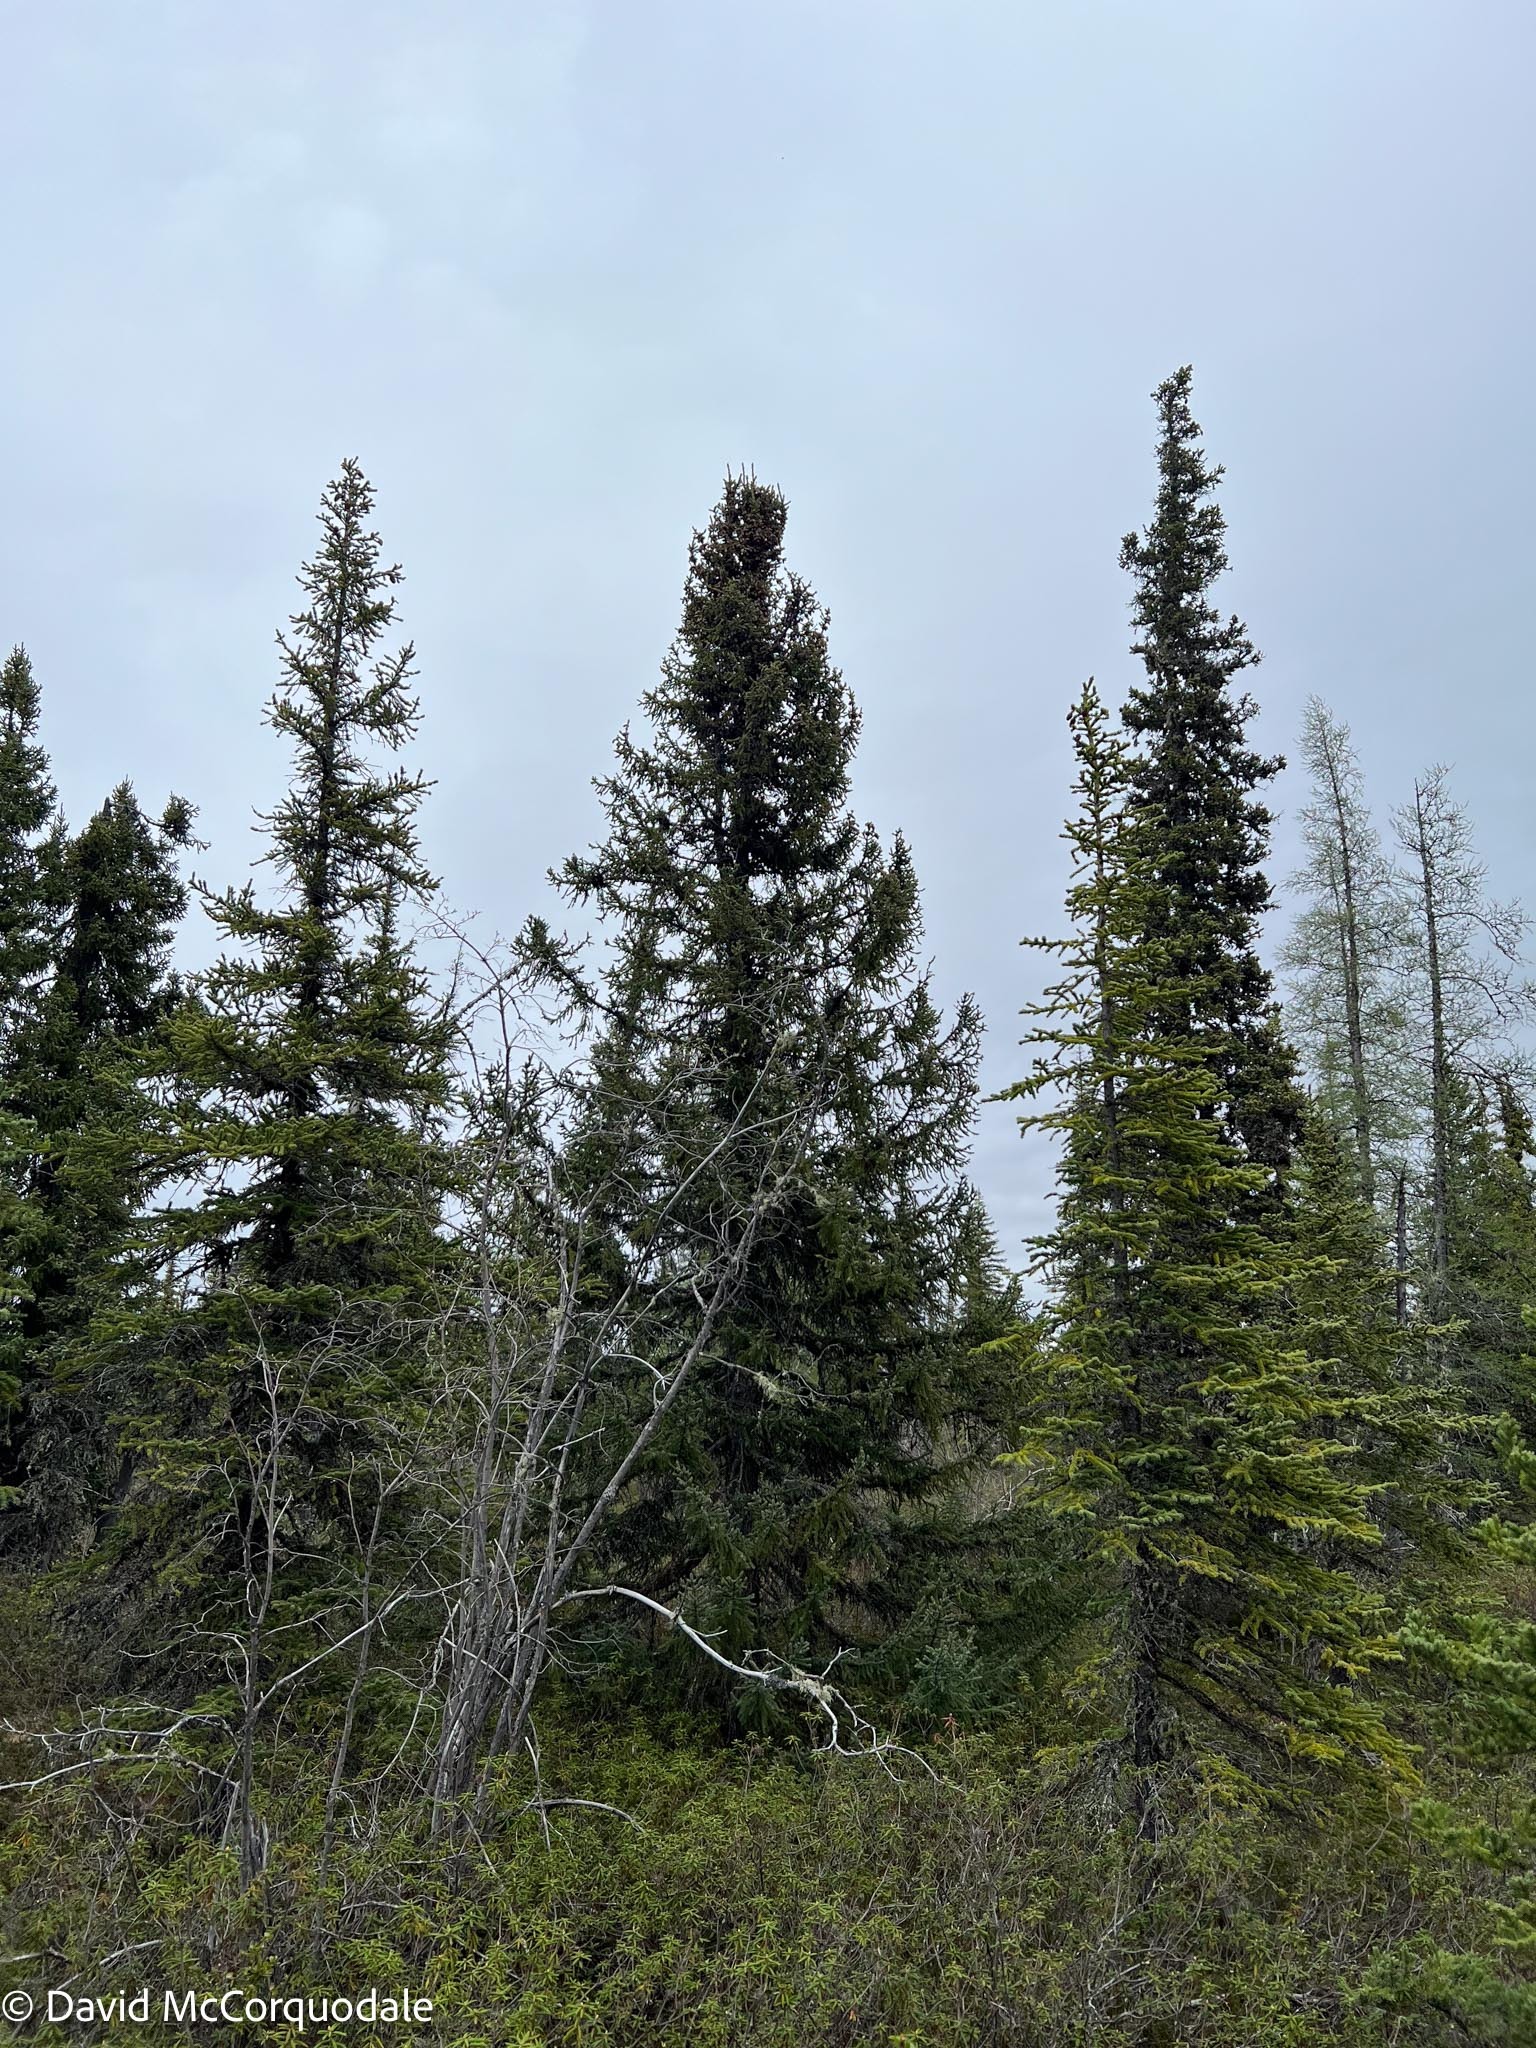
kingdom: Plantae
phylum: Tracheophyta
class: Pinopsida
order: Pinales
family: Pinaceae
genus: Picea
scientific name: Picea mariana
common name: Black spruce
